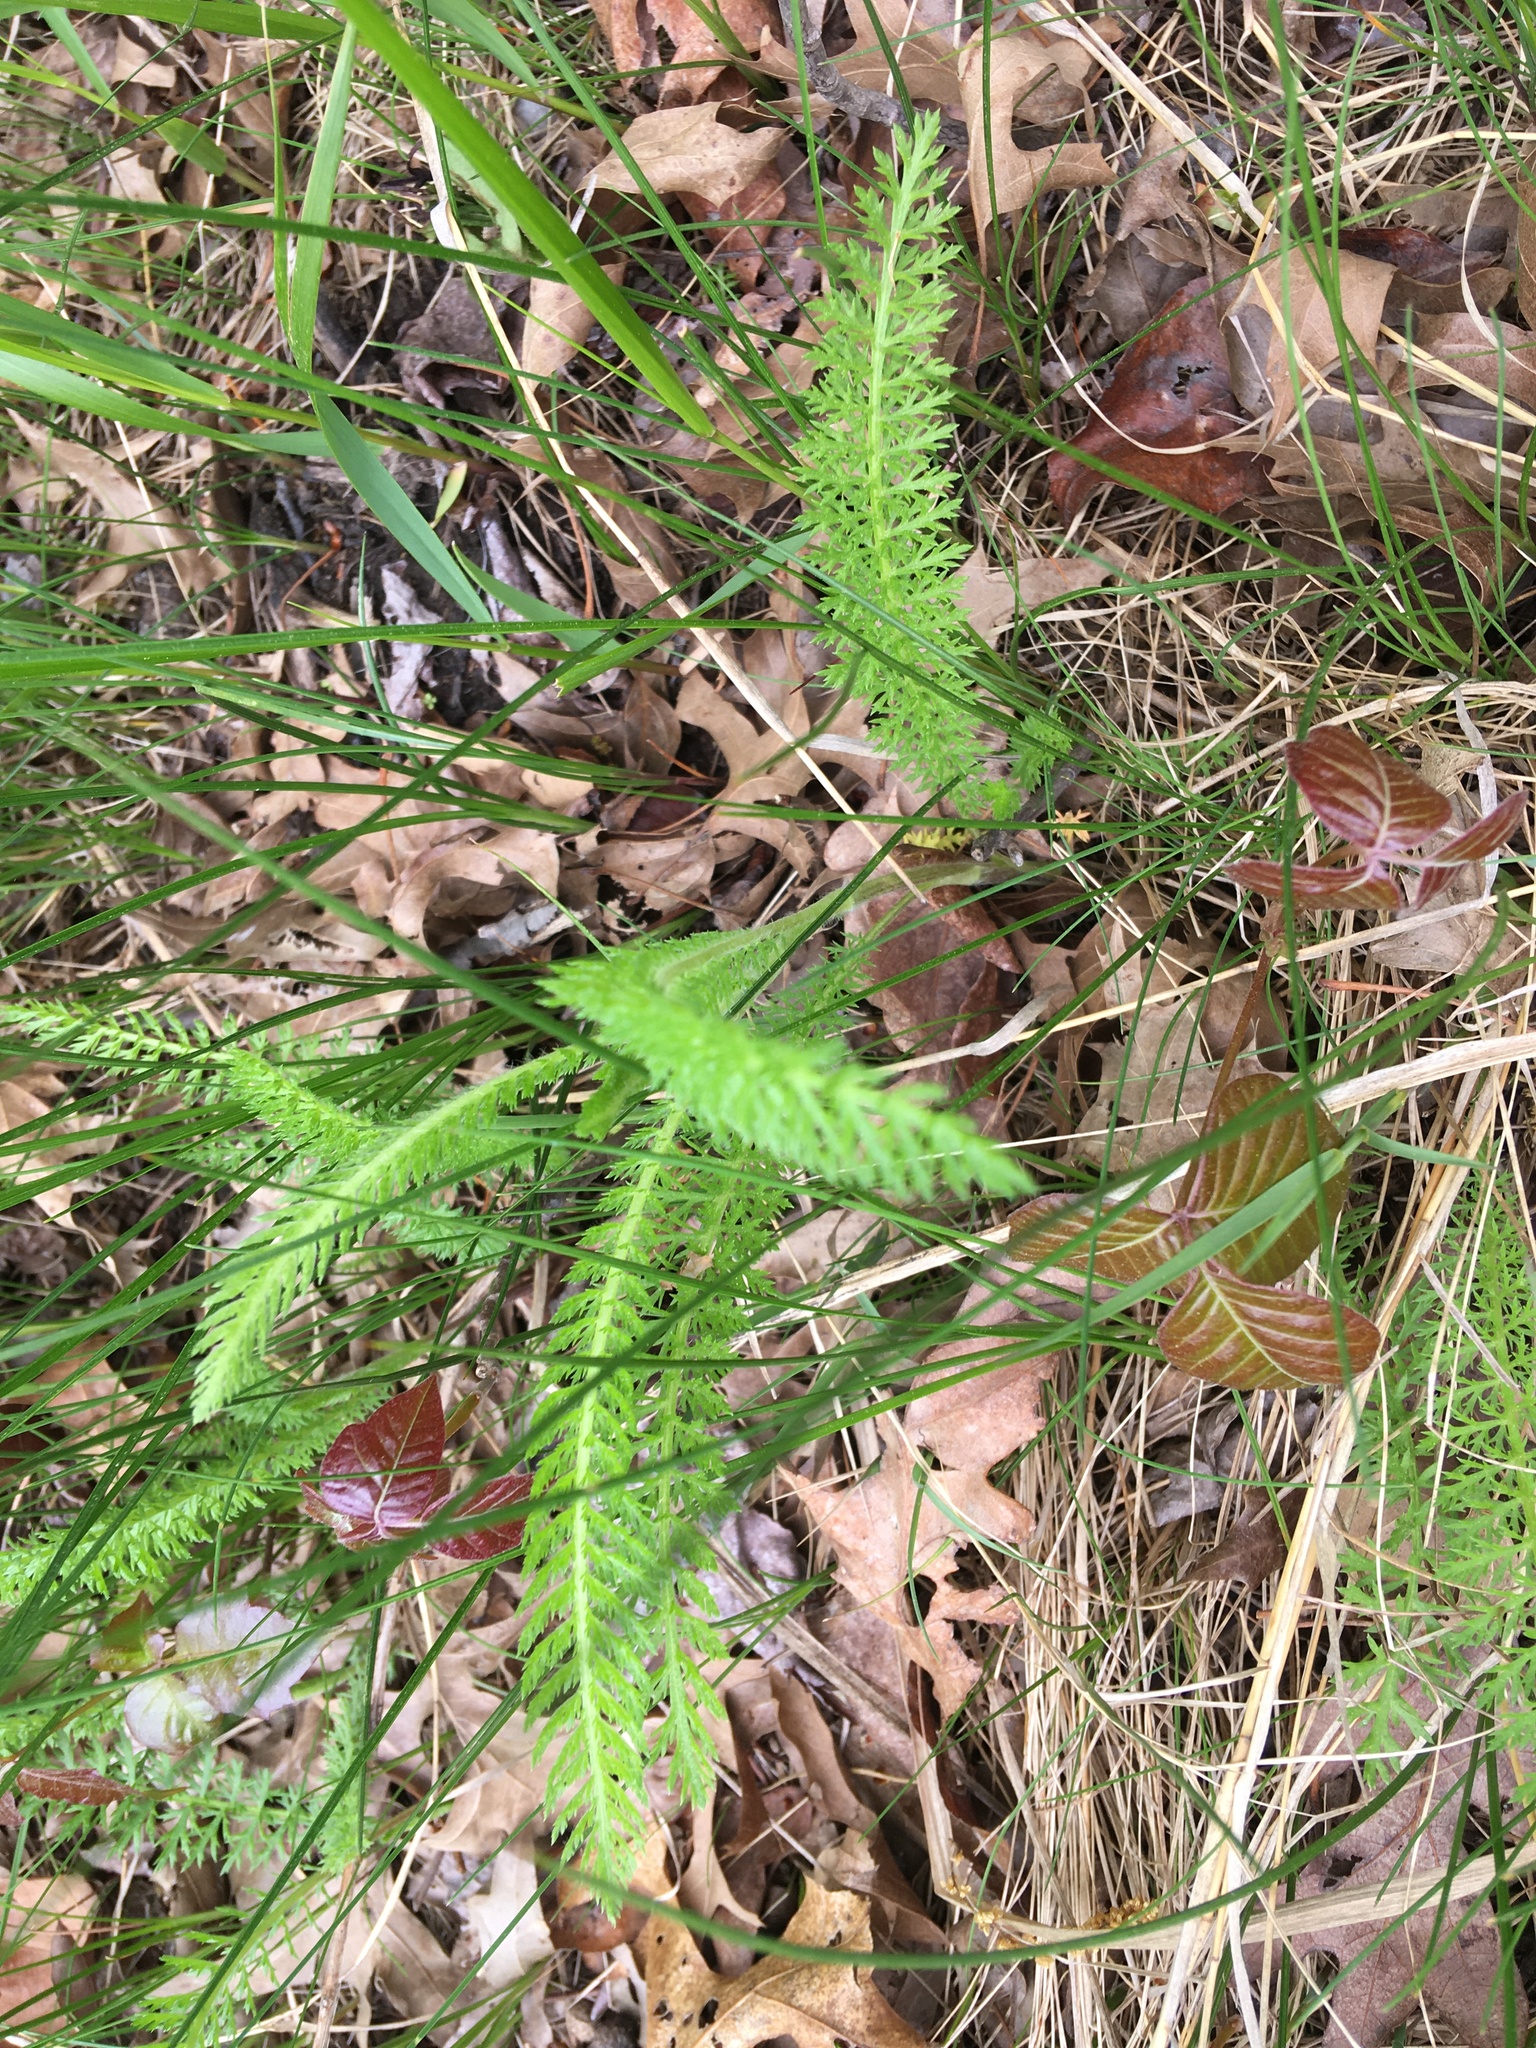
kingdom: Plantae
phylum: Tracheophyta
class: Magnoliopsida
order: Asterales
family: Asteraceae
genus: Achillea
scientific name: Achillea millefolium
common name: Yarrow
